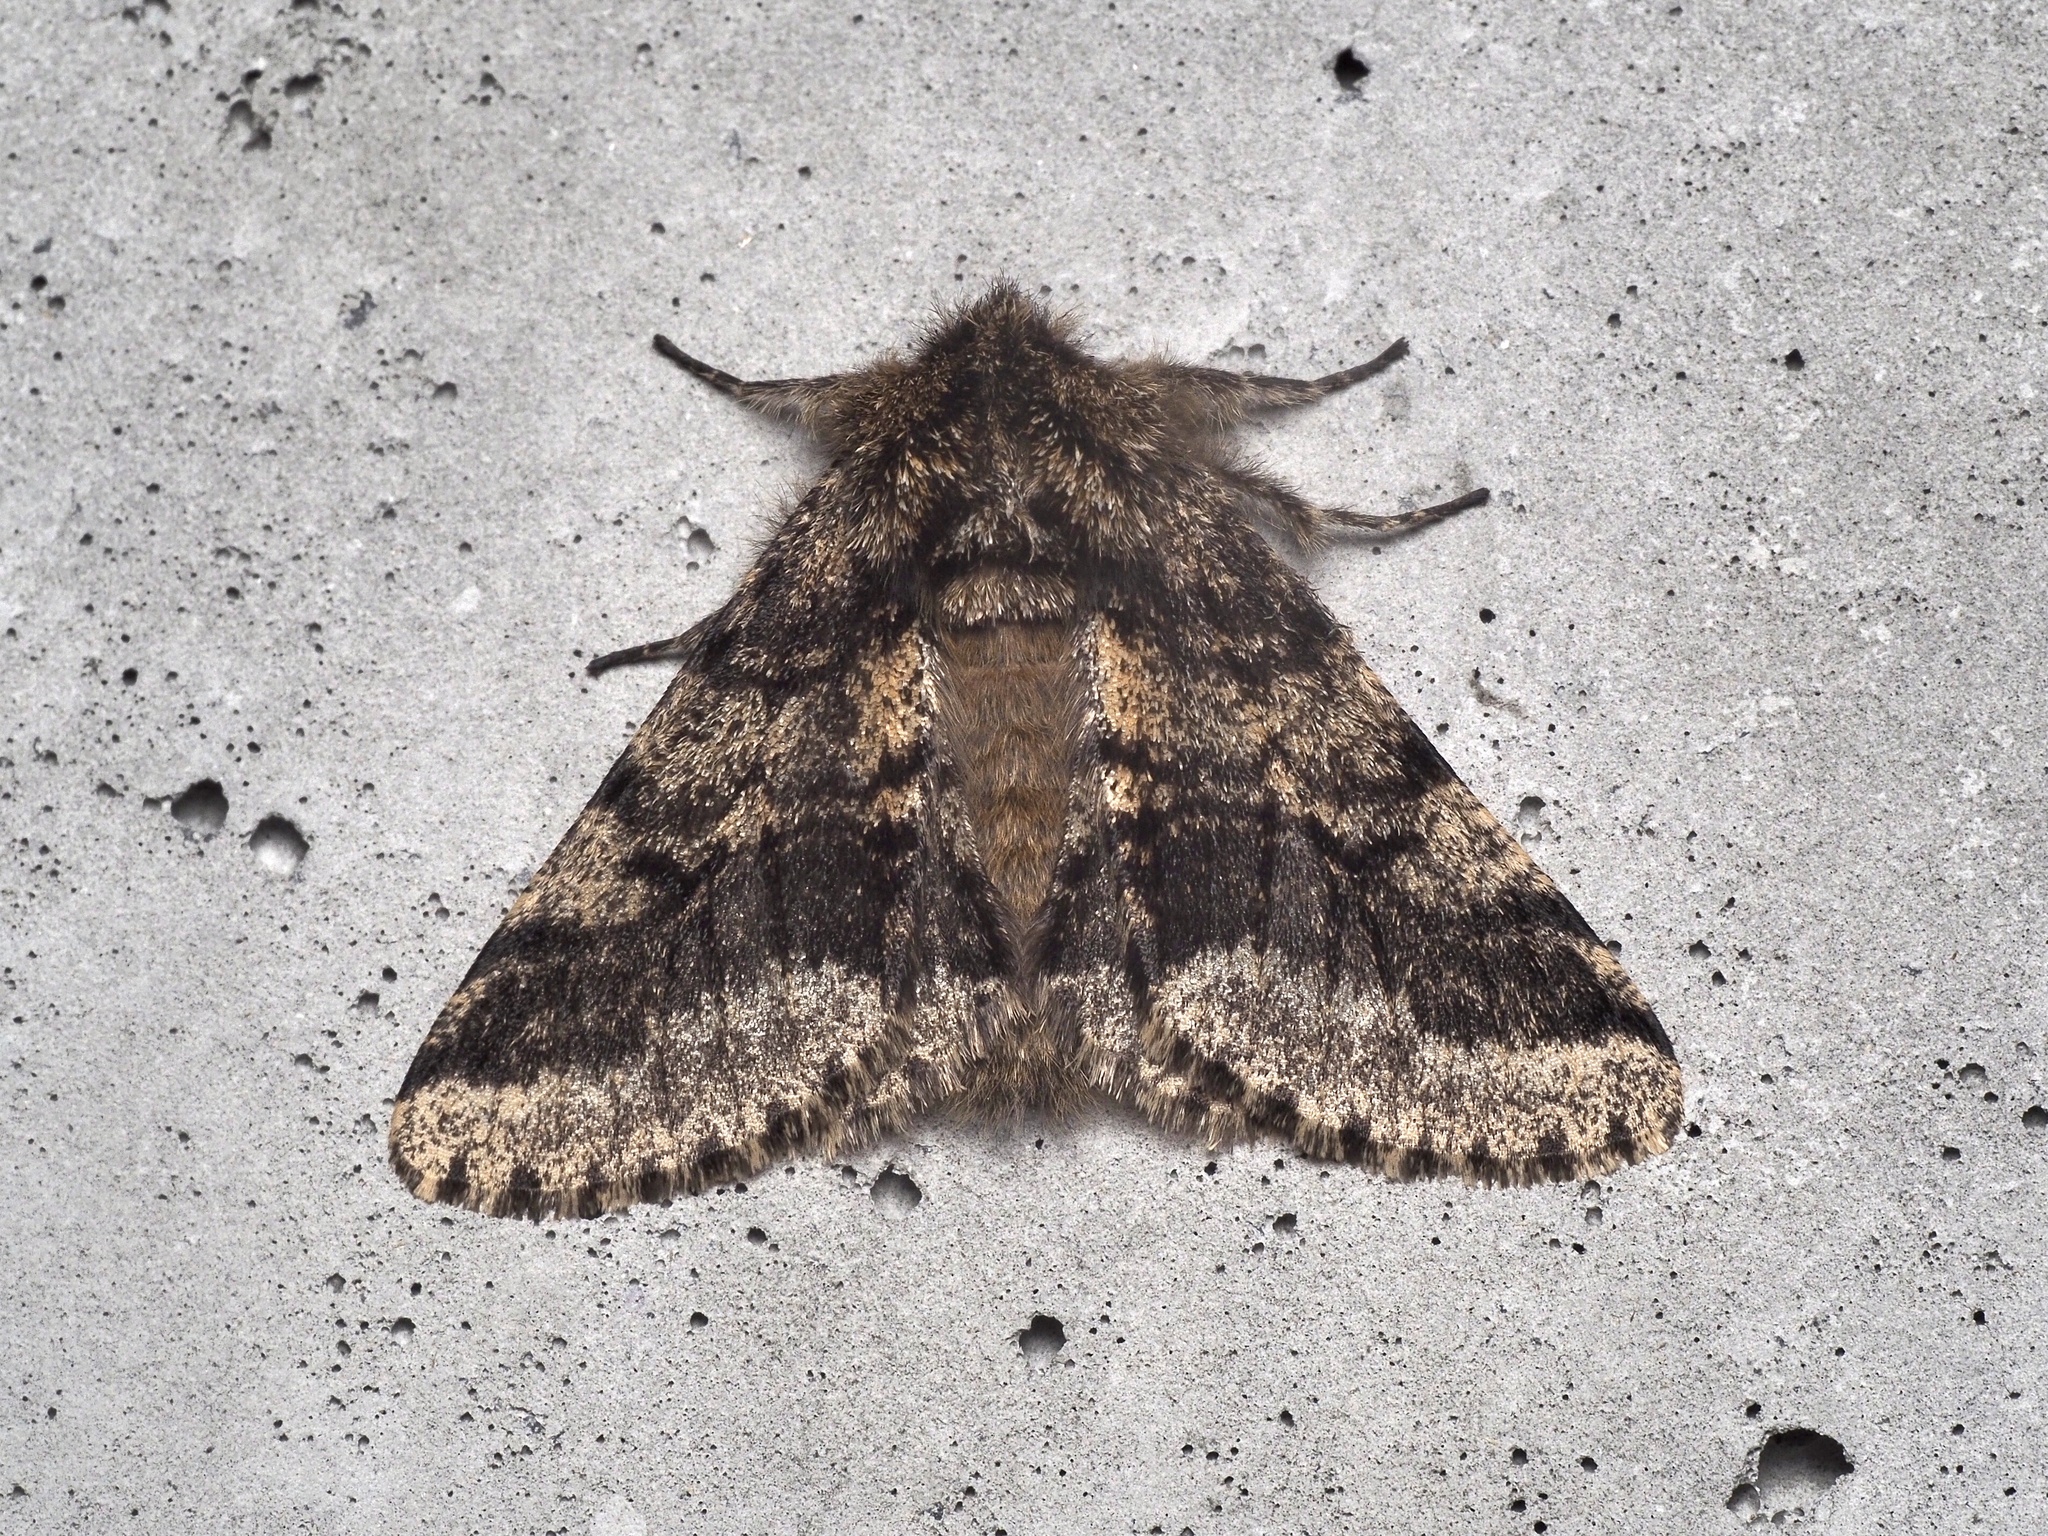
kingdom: Animalia
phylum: Arthropoda
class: Insecta
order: Lepidoptera
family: Geometridae
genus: Lycia
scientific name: Lycia hirtaria
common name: Brindled beauty
